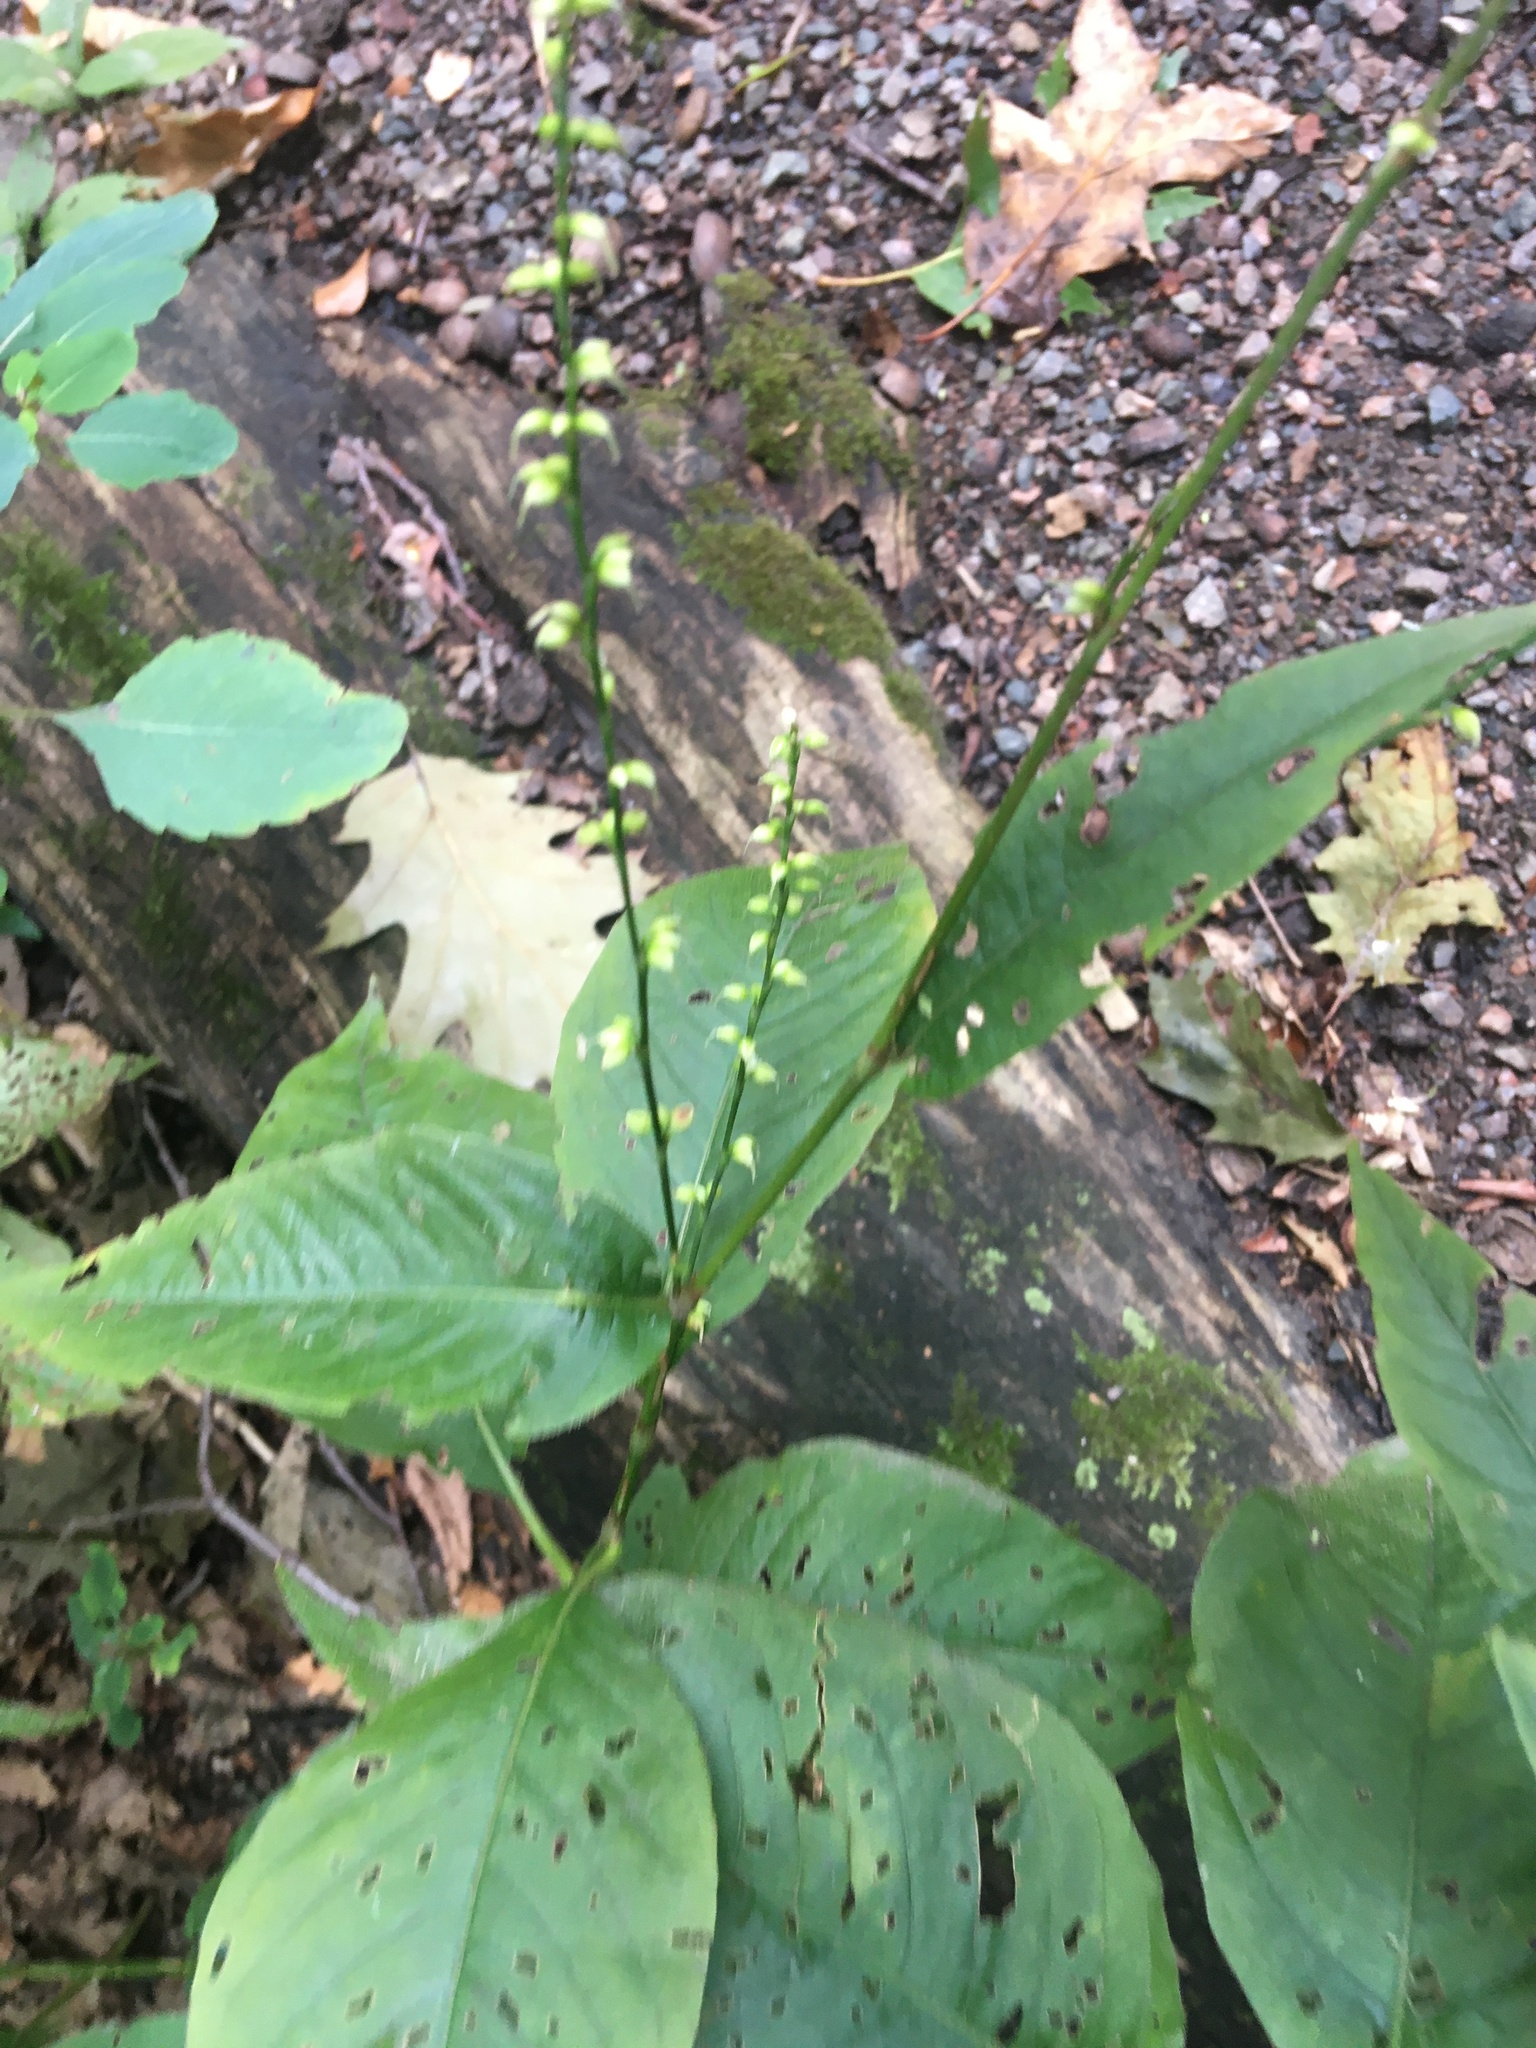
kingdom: Plantae
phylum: Tracheophyta
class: Magnoliopsida
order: Caryophyllales
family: Polygonaceae
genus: Persicaria
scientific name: Persicaria virginiana
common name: Jumpseed
